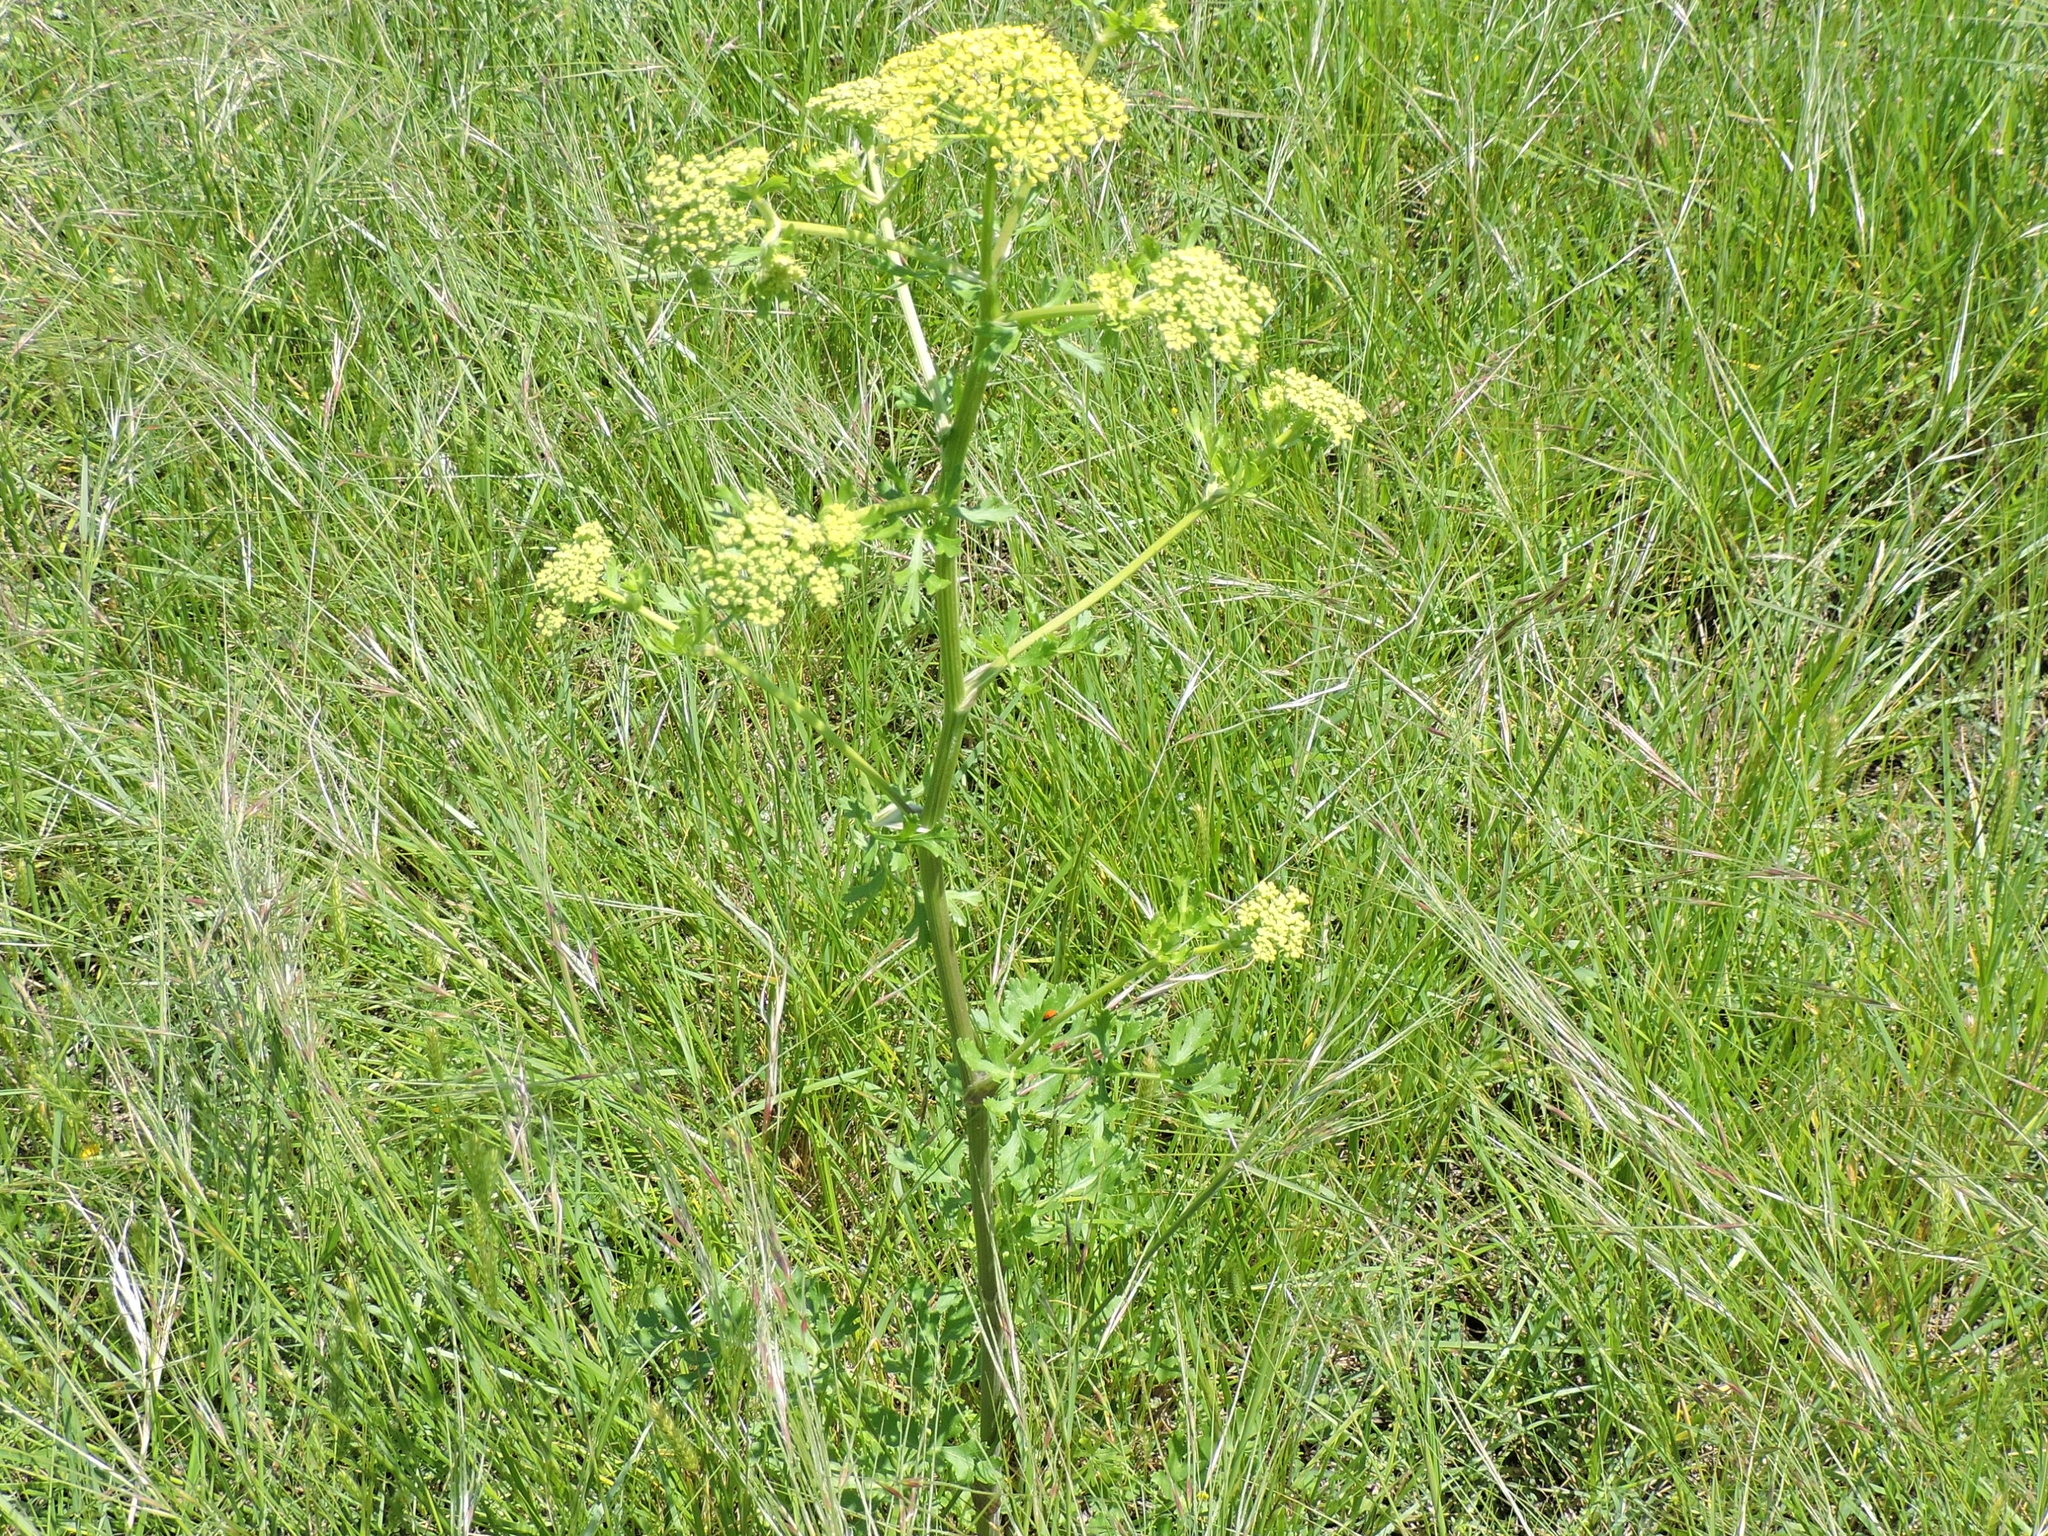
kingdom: Plantae
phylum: Tracheophyta
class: Magnoliopsida
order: Apiales
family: Apiaceae
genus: Polytaenia
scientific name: Polytaenia texana
